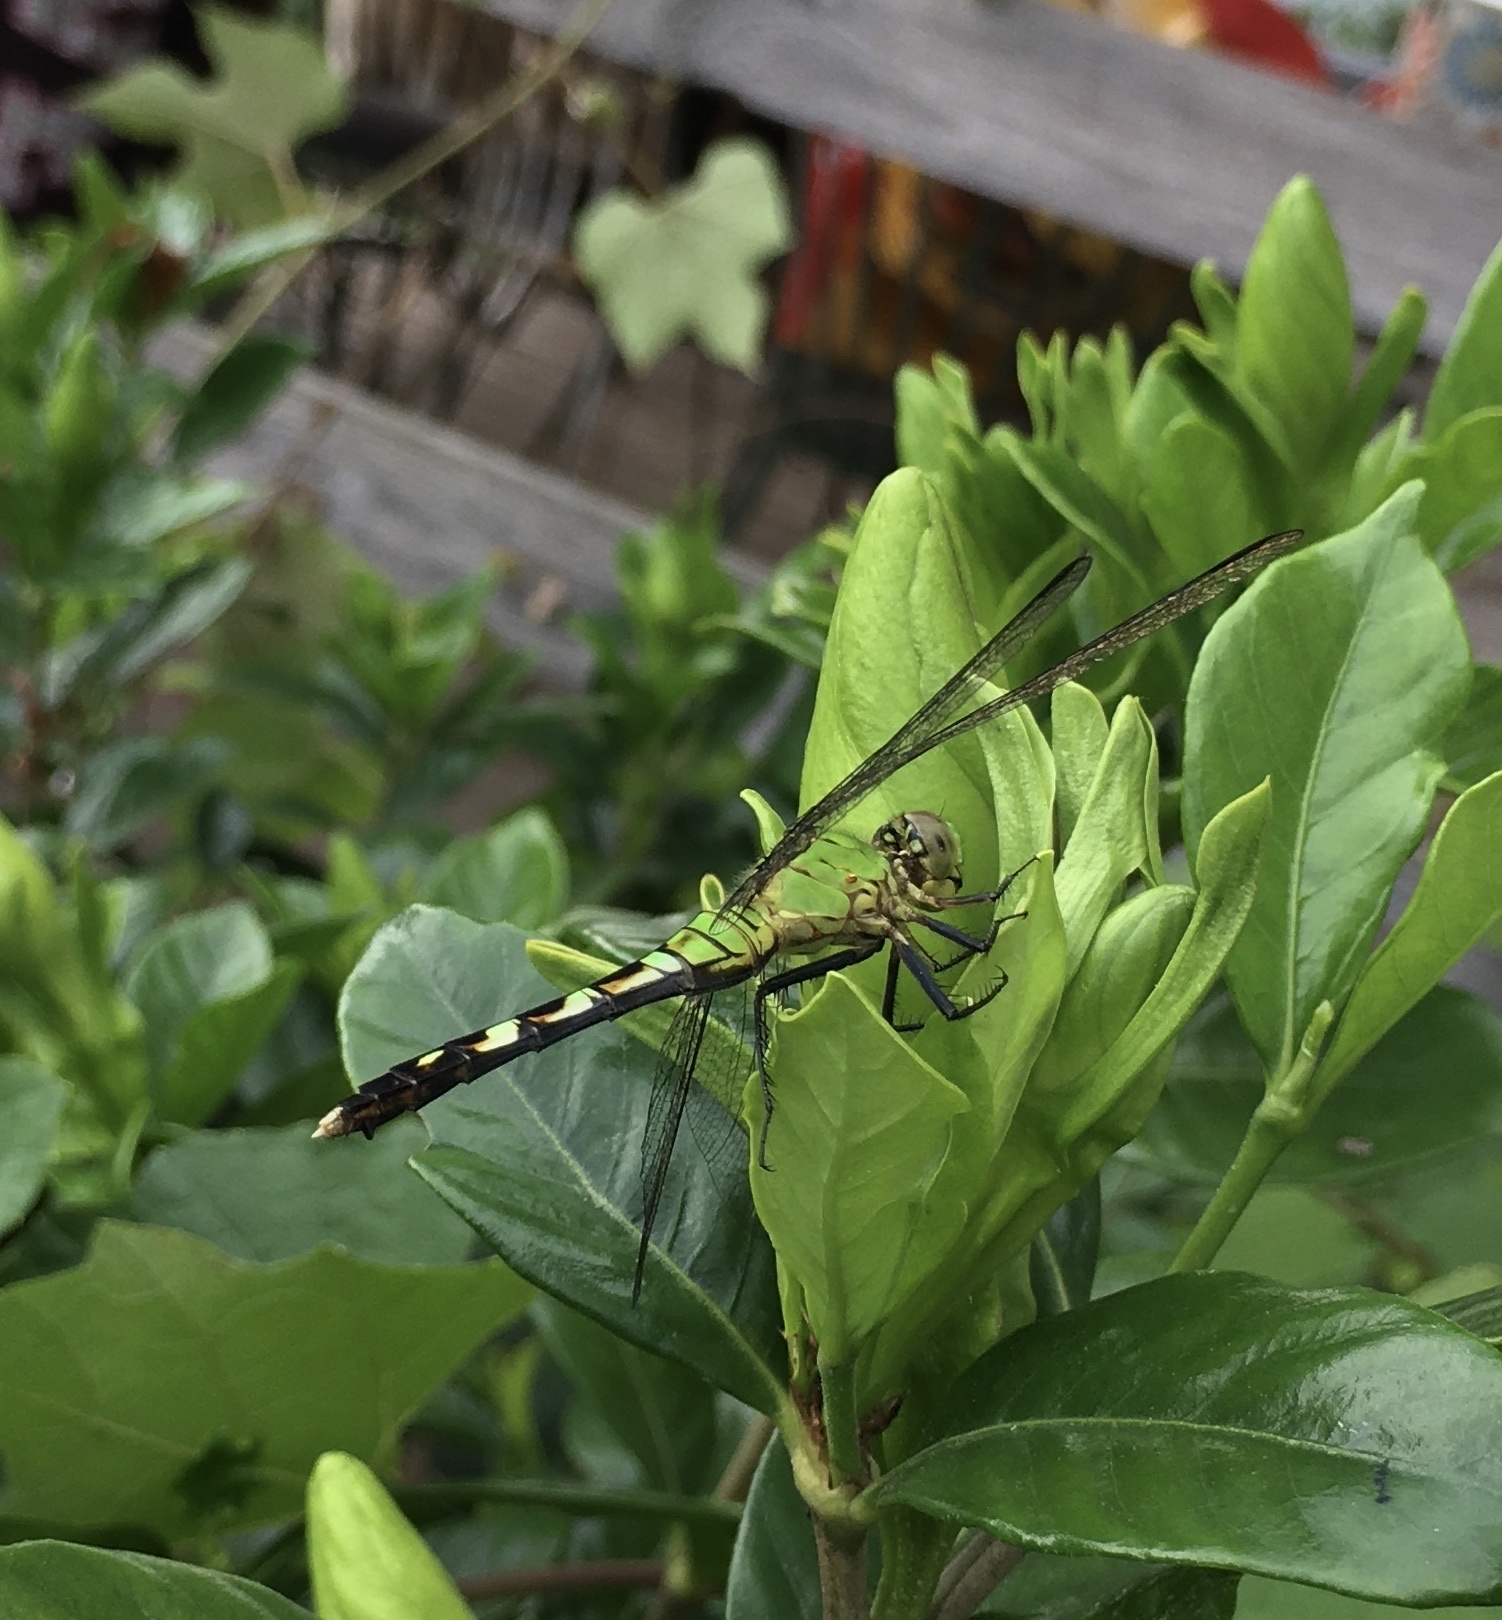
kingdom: Animalia
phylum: Arthropoda
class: Insecta
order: Odonata
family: Libellulidae
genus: Erythemis
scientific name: Erythemis simplicicollis
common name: Eastern pondhawk
